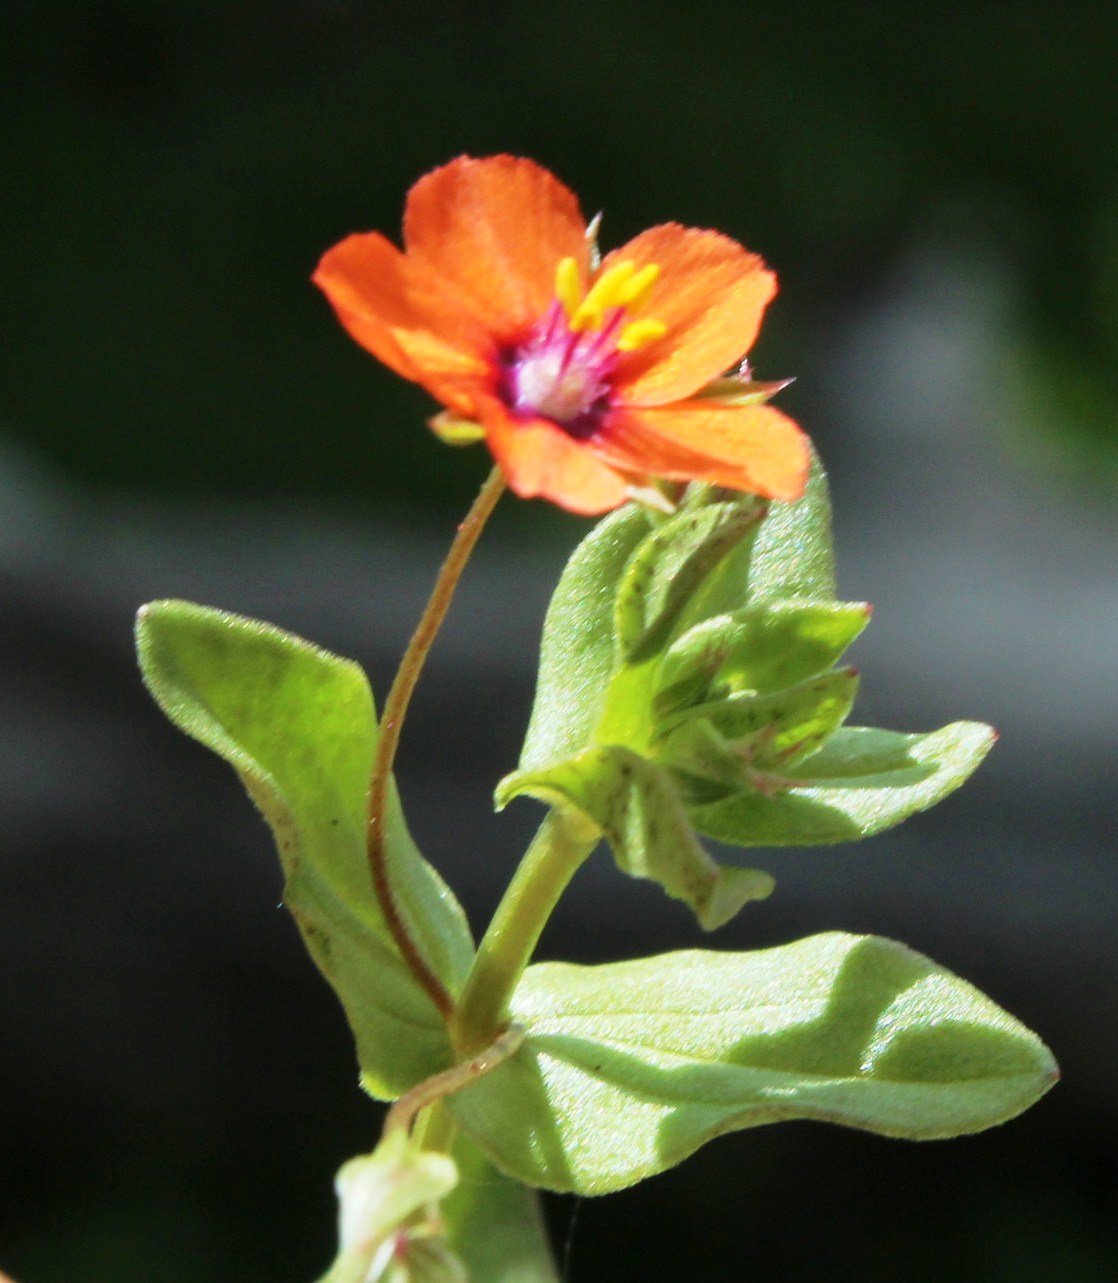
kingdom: Plantae
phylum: Tracheophyta
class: Magnoliopsida
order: Ericales
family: Primulaceae
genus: Lysimachia
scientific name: Lysimachia arvensis
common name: Scarlet pimpernel
